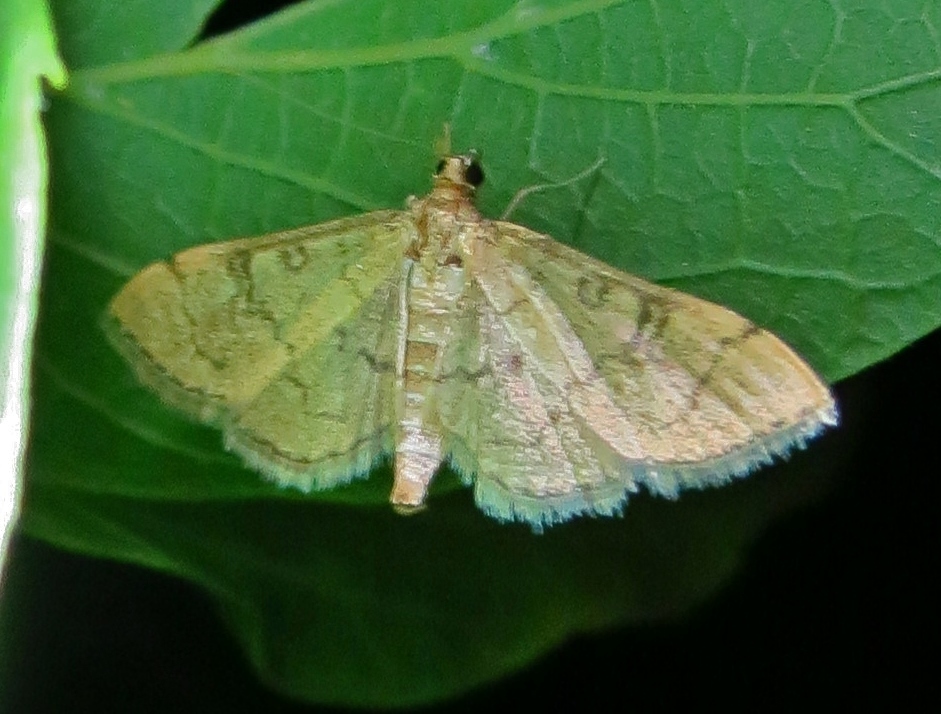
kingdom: Animalia
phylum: Arthropoda
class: Insecta
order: Lepidoptera
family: Crambidae
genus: Lamprosema
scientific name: Lamprosema Blepharomastix ranalis
